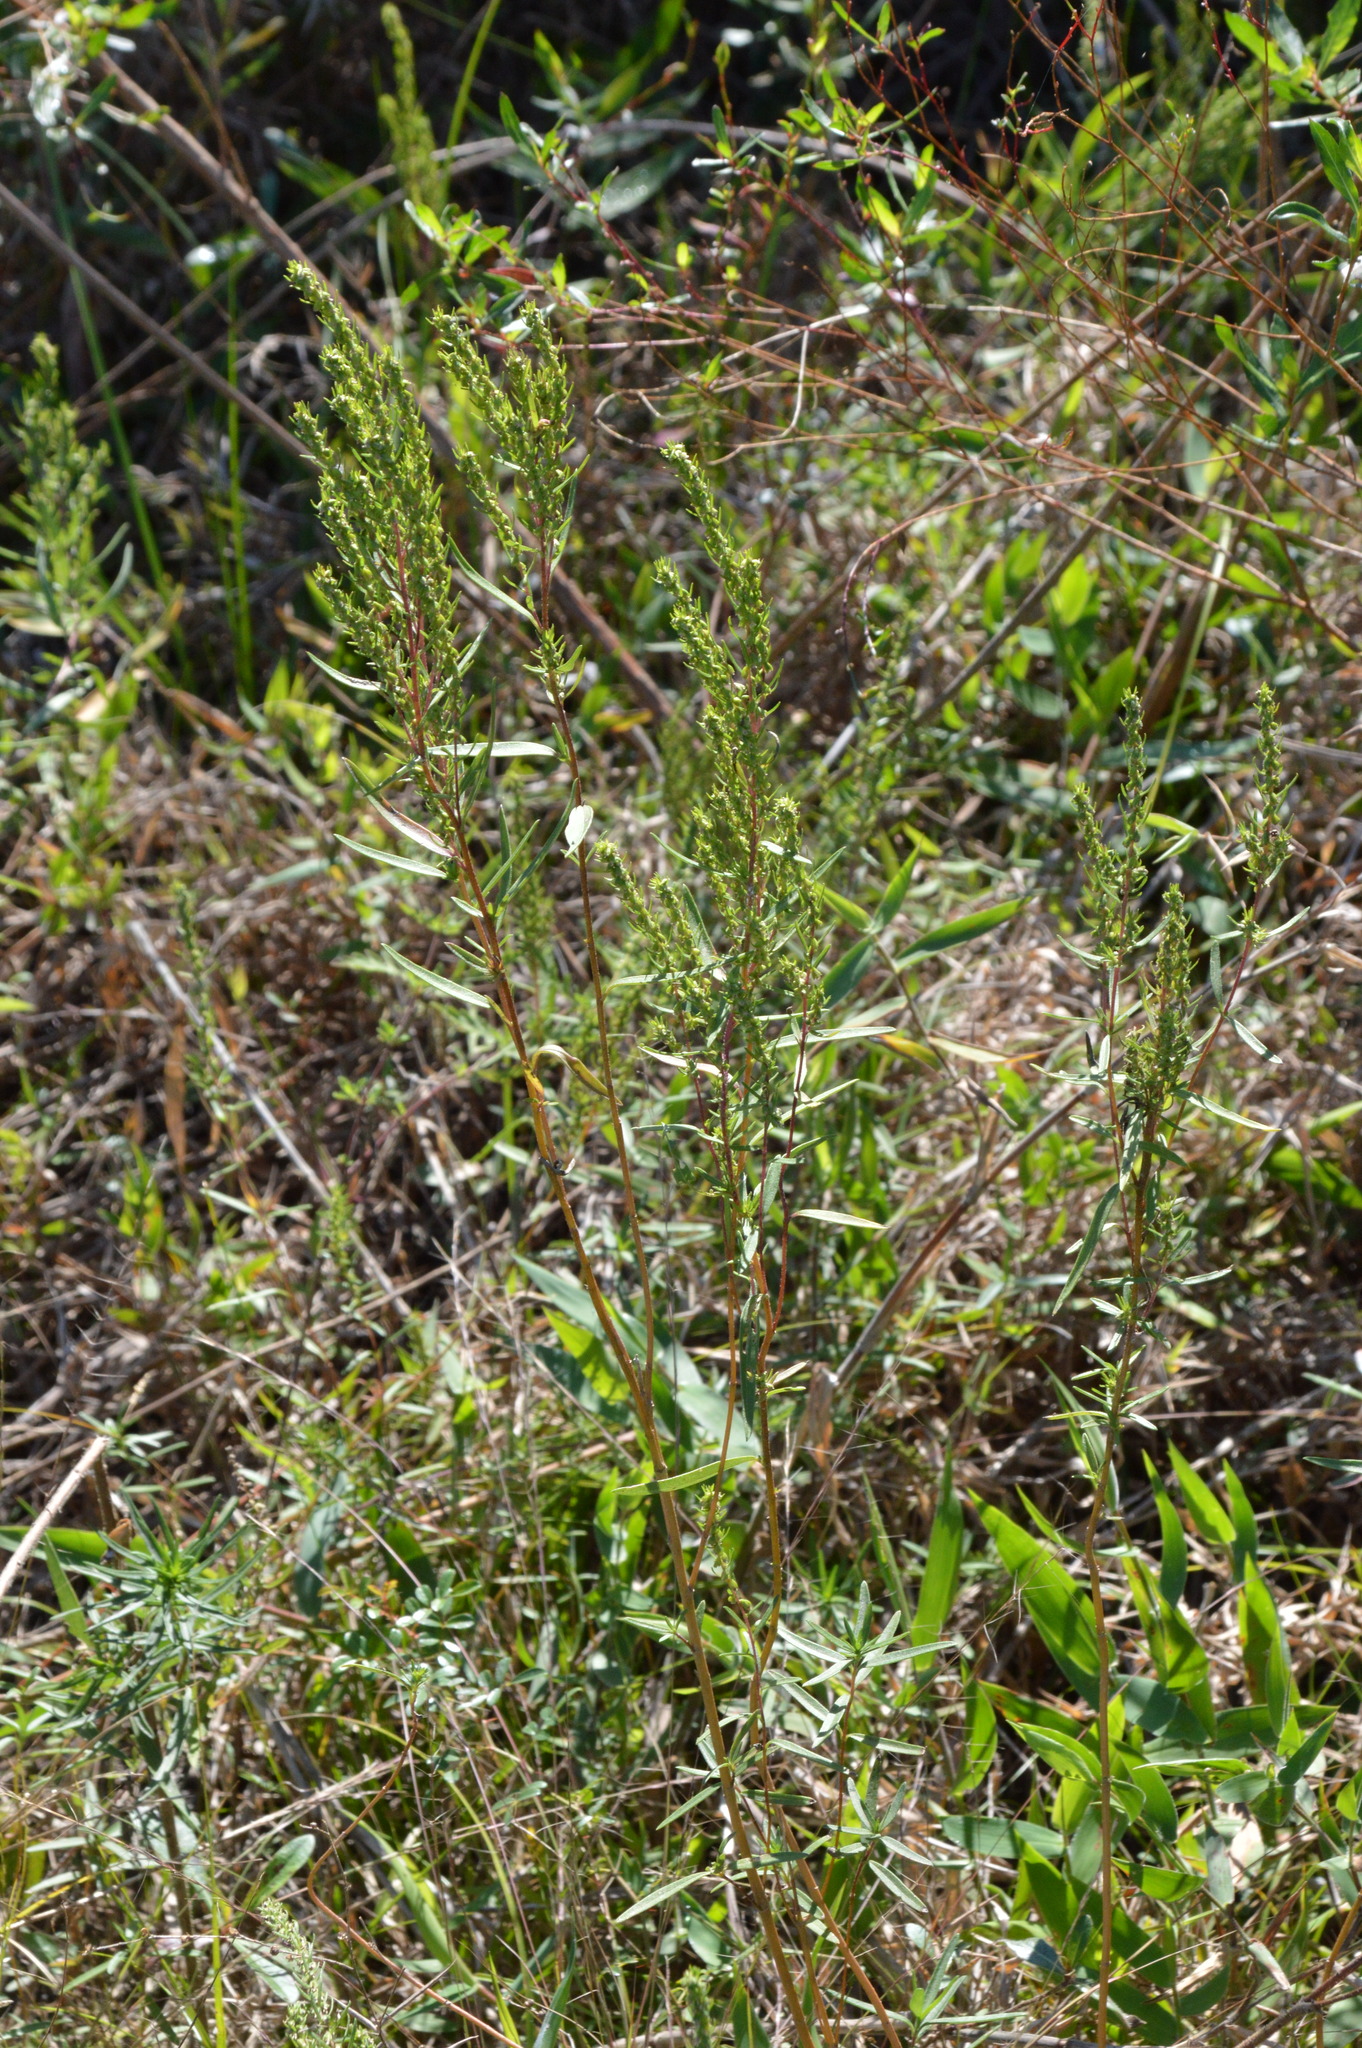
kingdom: Plantae
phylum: Tracheophyta
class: Magnoliopsida
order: Asterales
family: Asteraceae
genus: Iva
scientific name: Iva asperifolia
